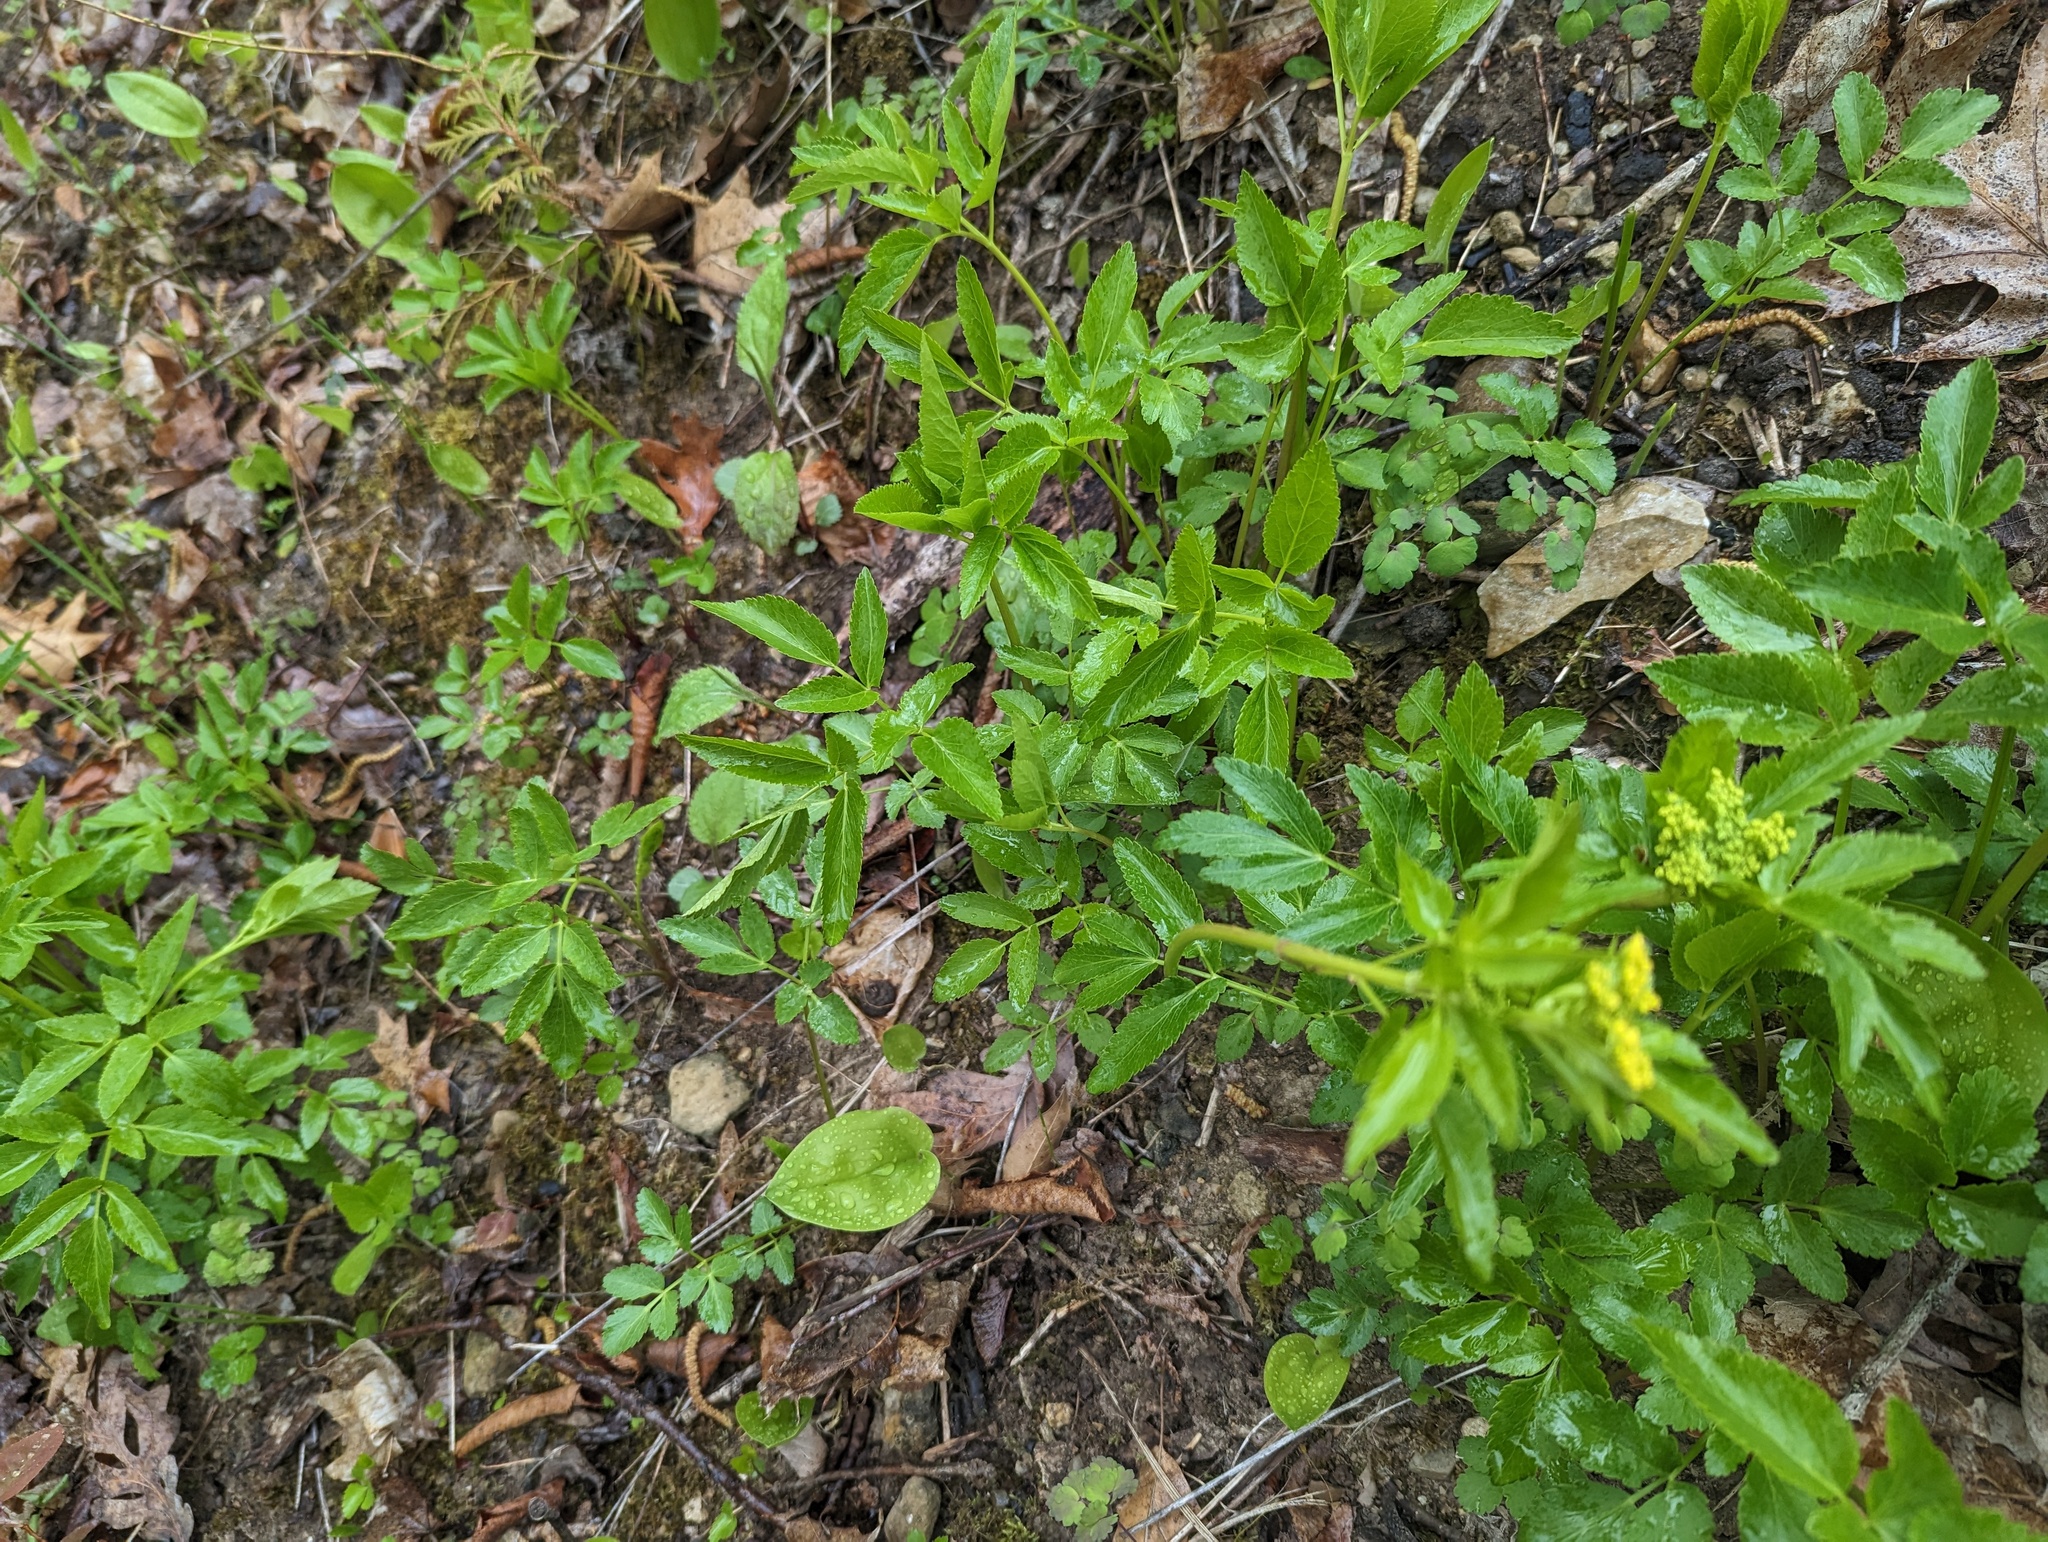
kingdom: Plantae
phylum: Tracheophyta
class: Magnoliopsida
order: Apiales
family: Apiaceae
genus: Zizia
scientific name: Zizia aurea
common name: Golden alexanders
